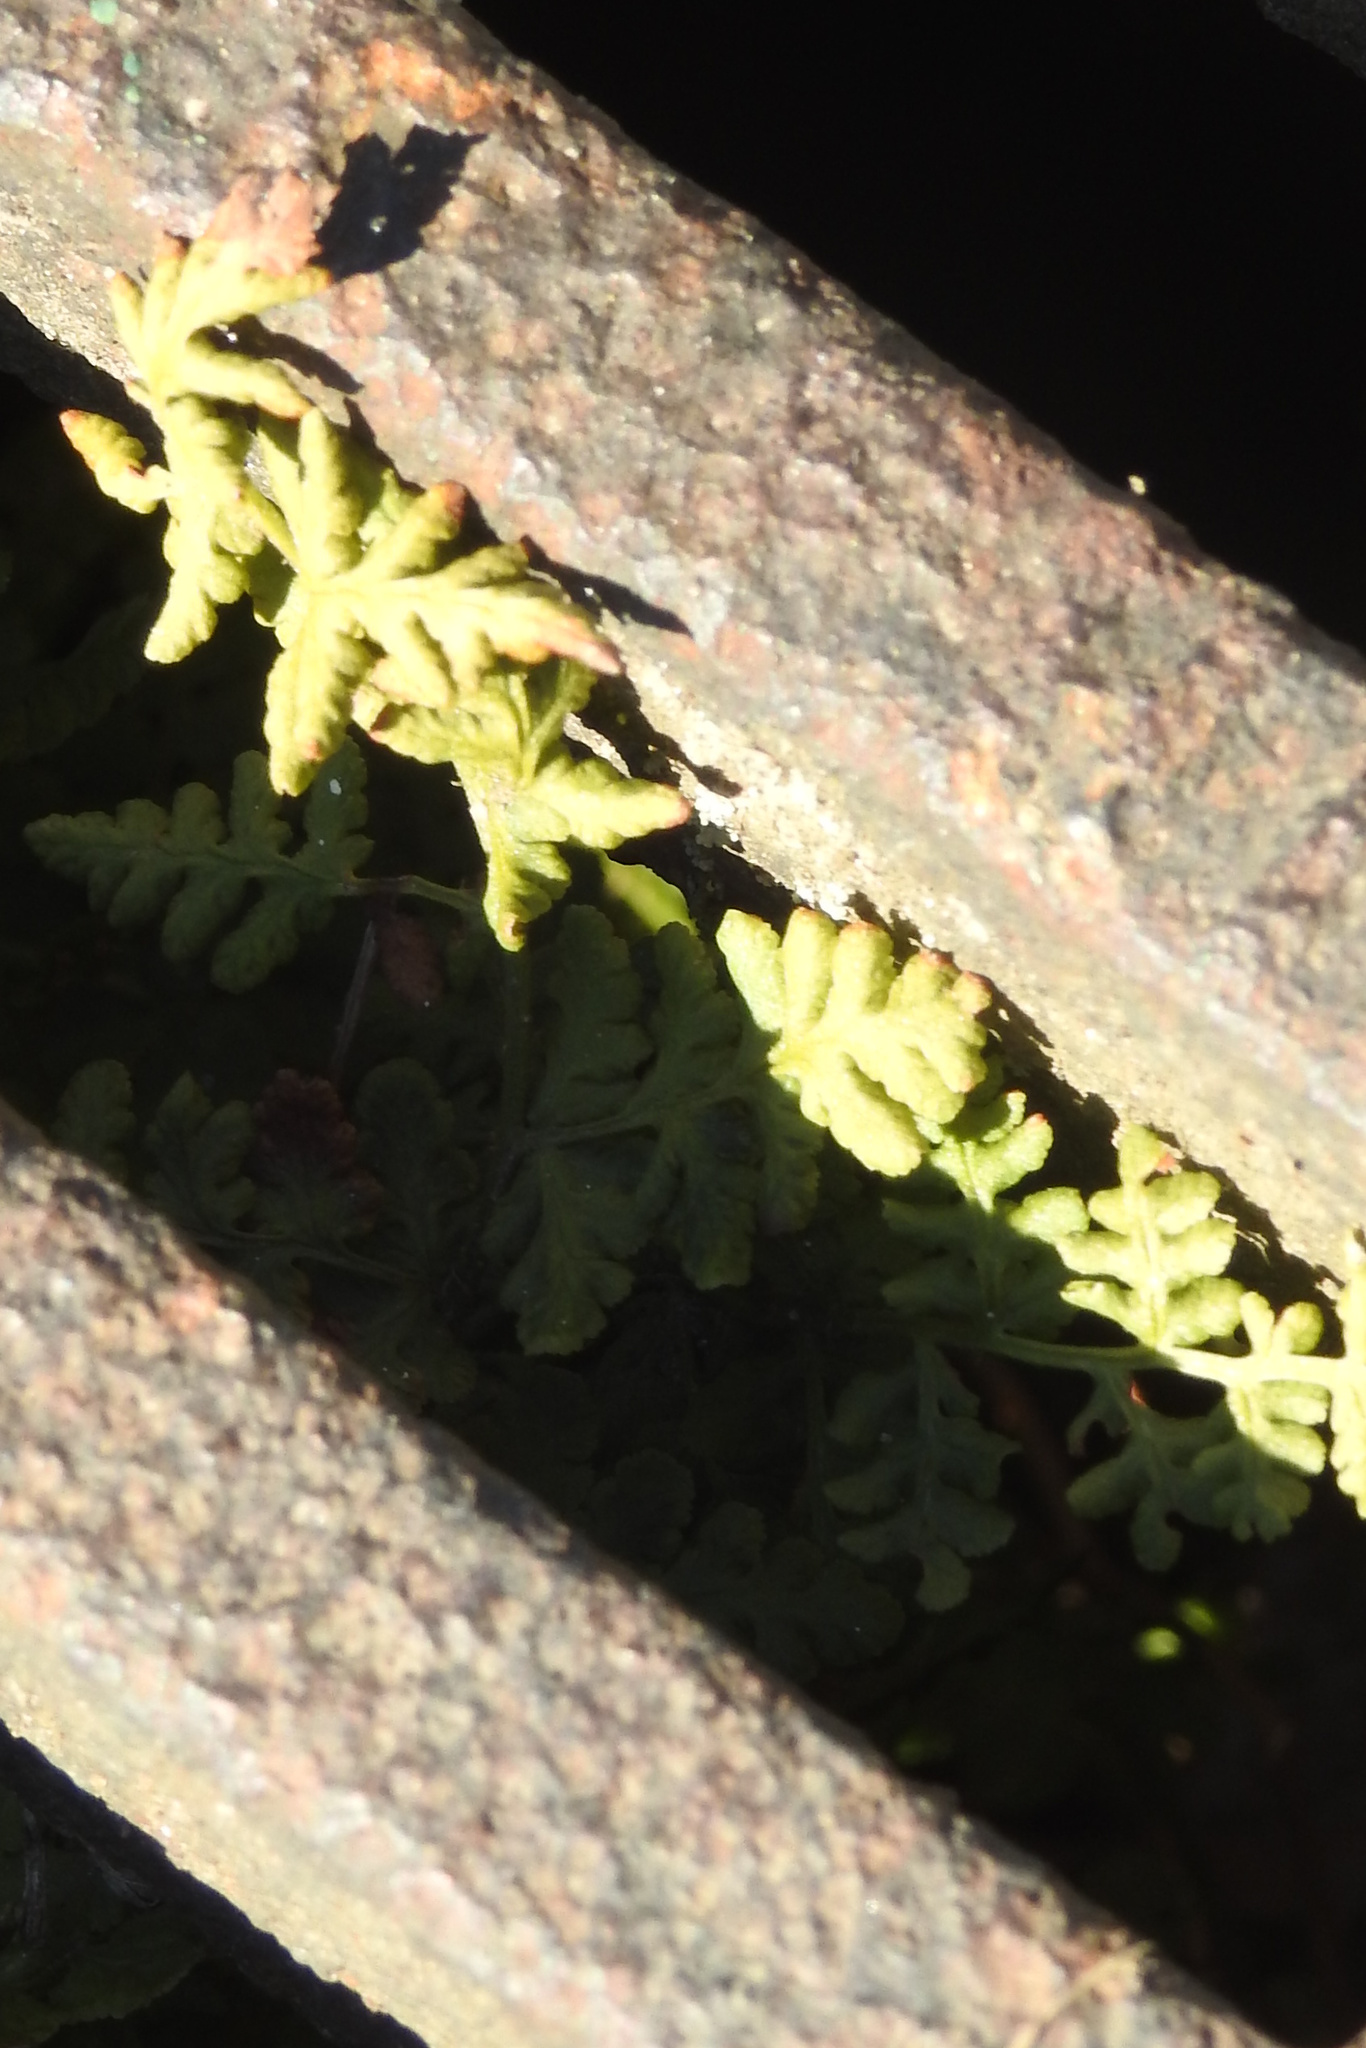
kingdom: Plantae
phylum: Tracheophyta
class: Polypodiopsida
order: Polypodiales
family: Woodsiaceae
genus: Physematium
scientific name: Physematium obtusum
